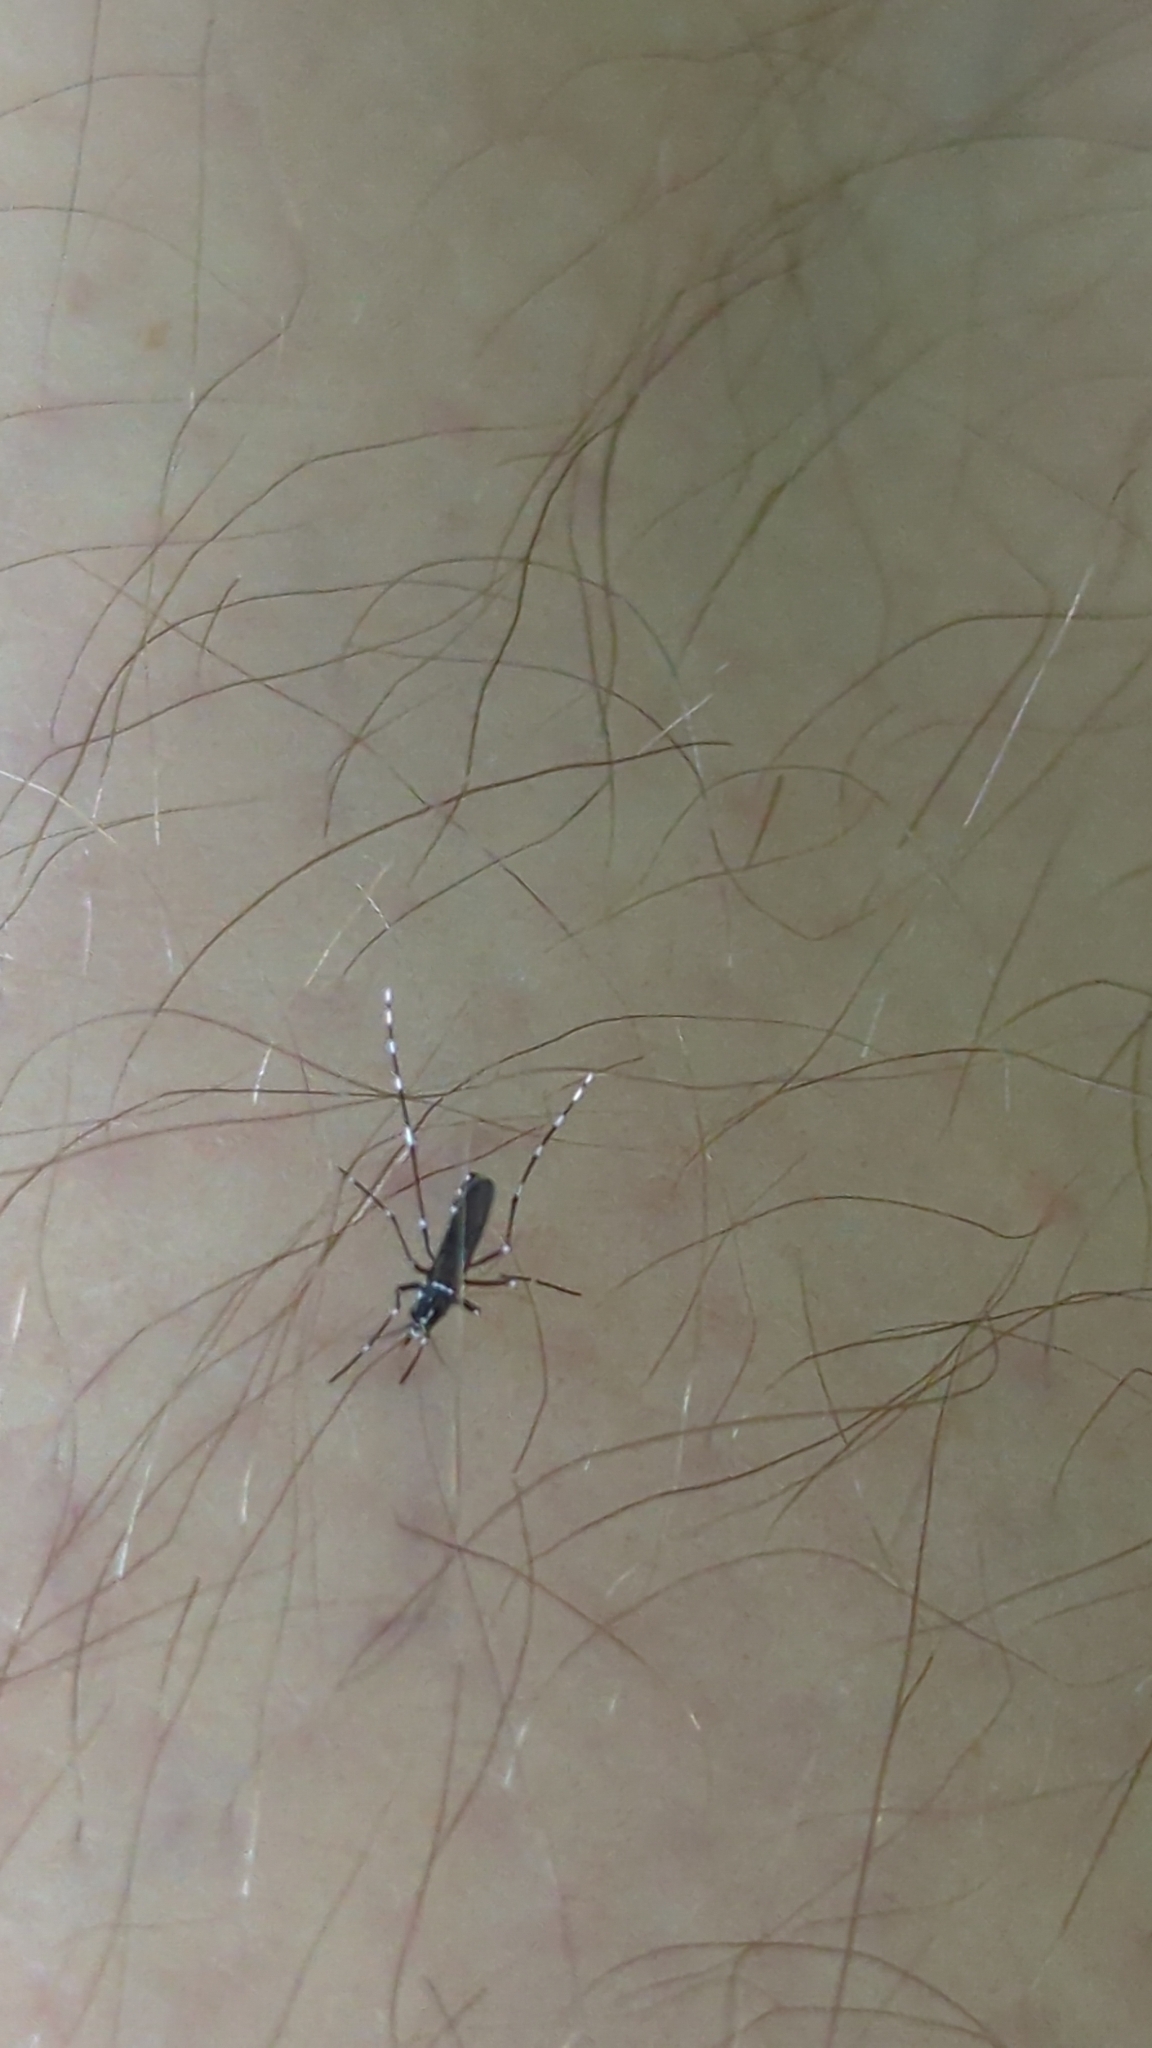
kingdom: Animalia
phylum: Arthropoda
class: Insecta
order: Diptera
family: Culicidae
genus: Aedes
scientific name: Aedes albopictus
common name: Tiger mosquito
